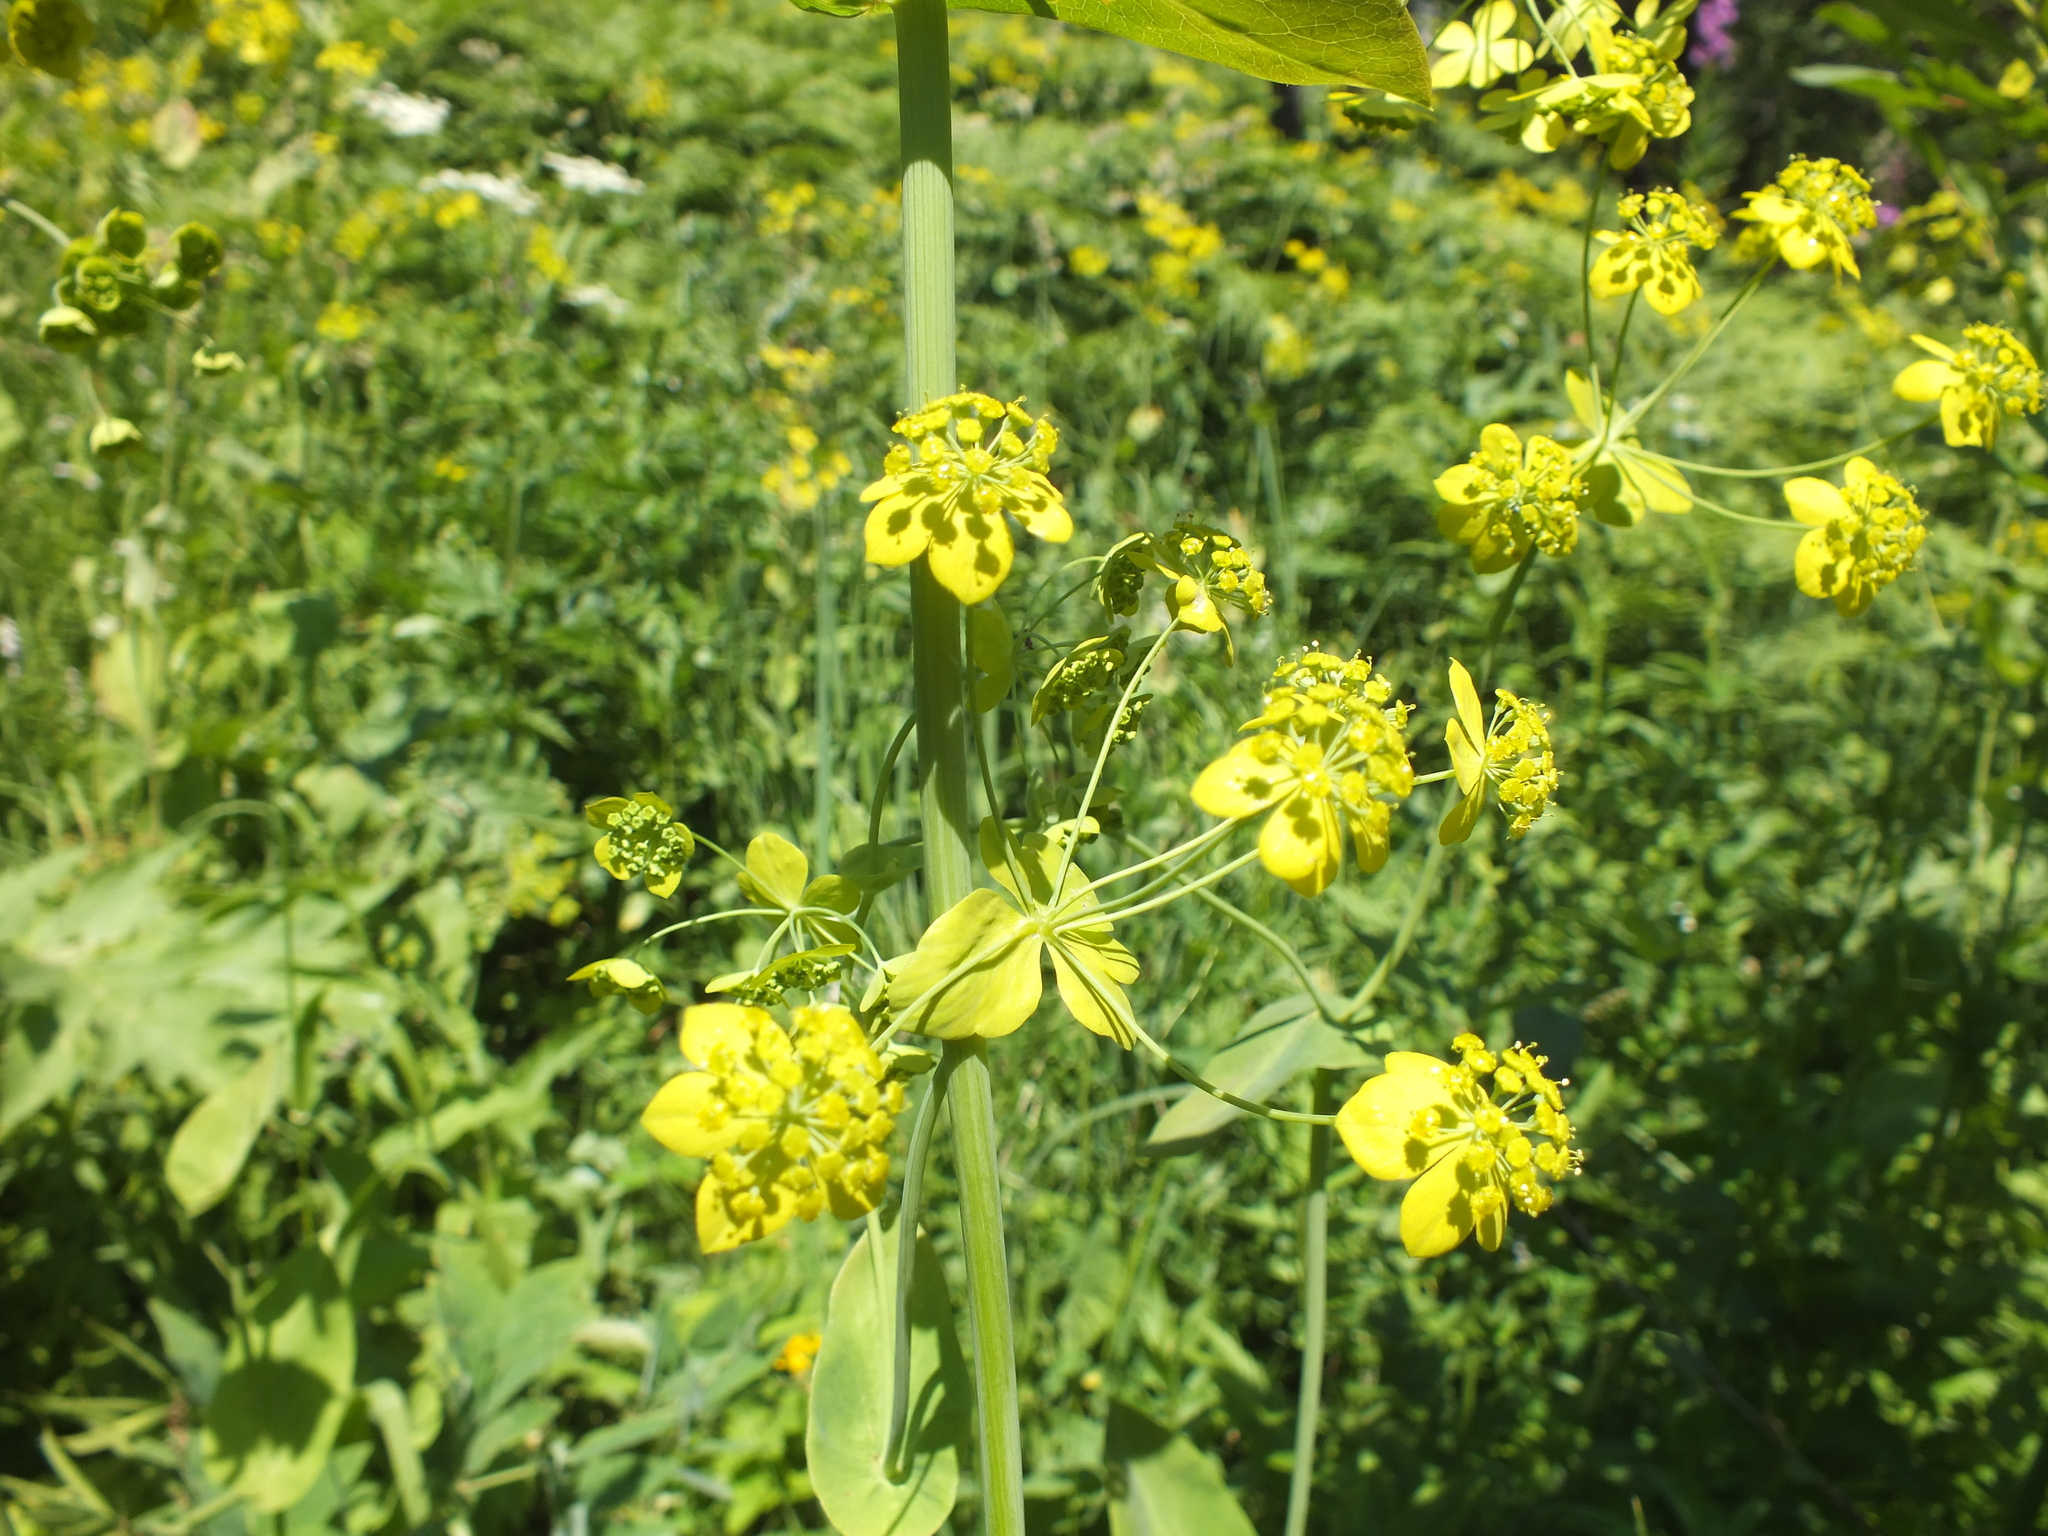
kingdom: Plantae
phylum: Tracheophyta
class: Magnoliopsida
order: Apiales
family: Apiaceae
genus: Bupleurum
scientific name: Bupleurum aureum
